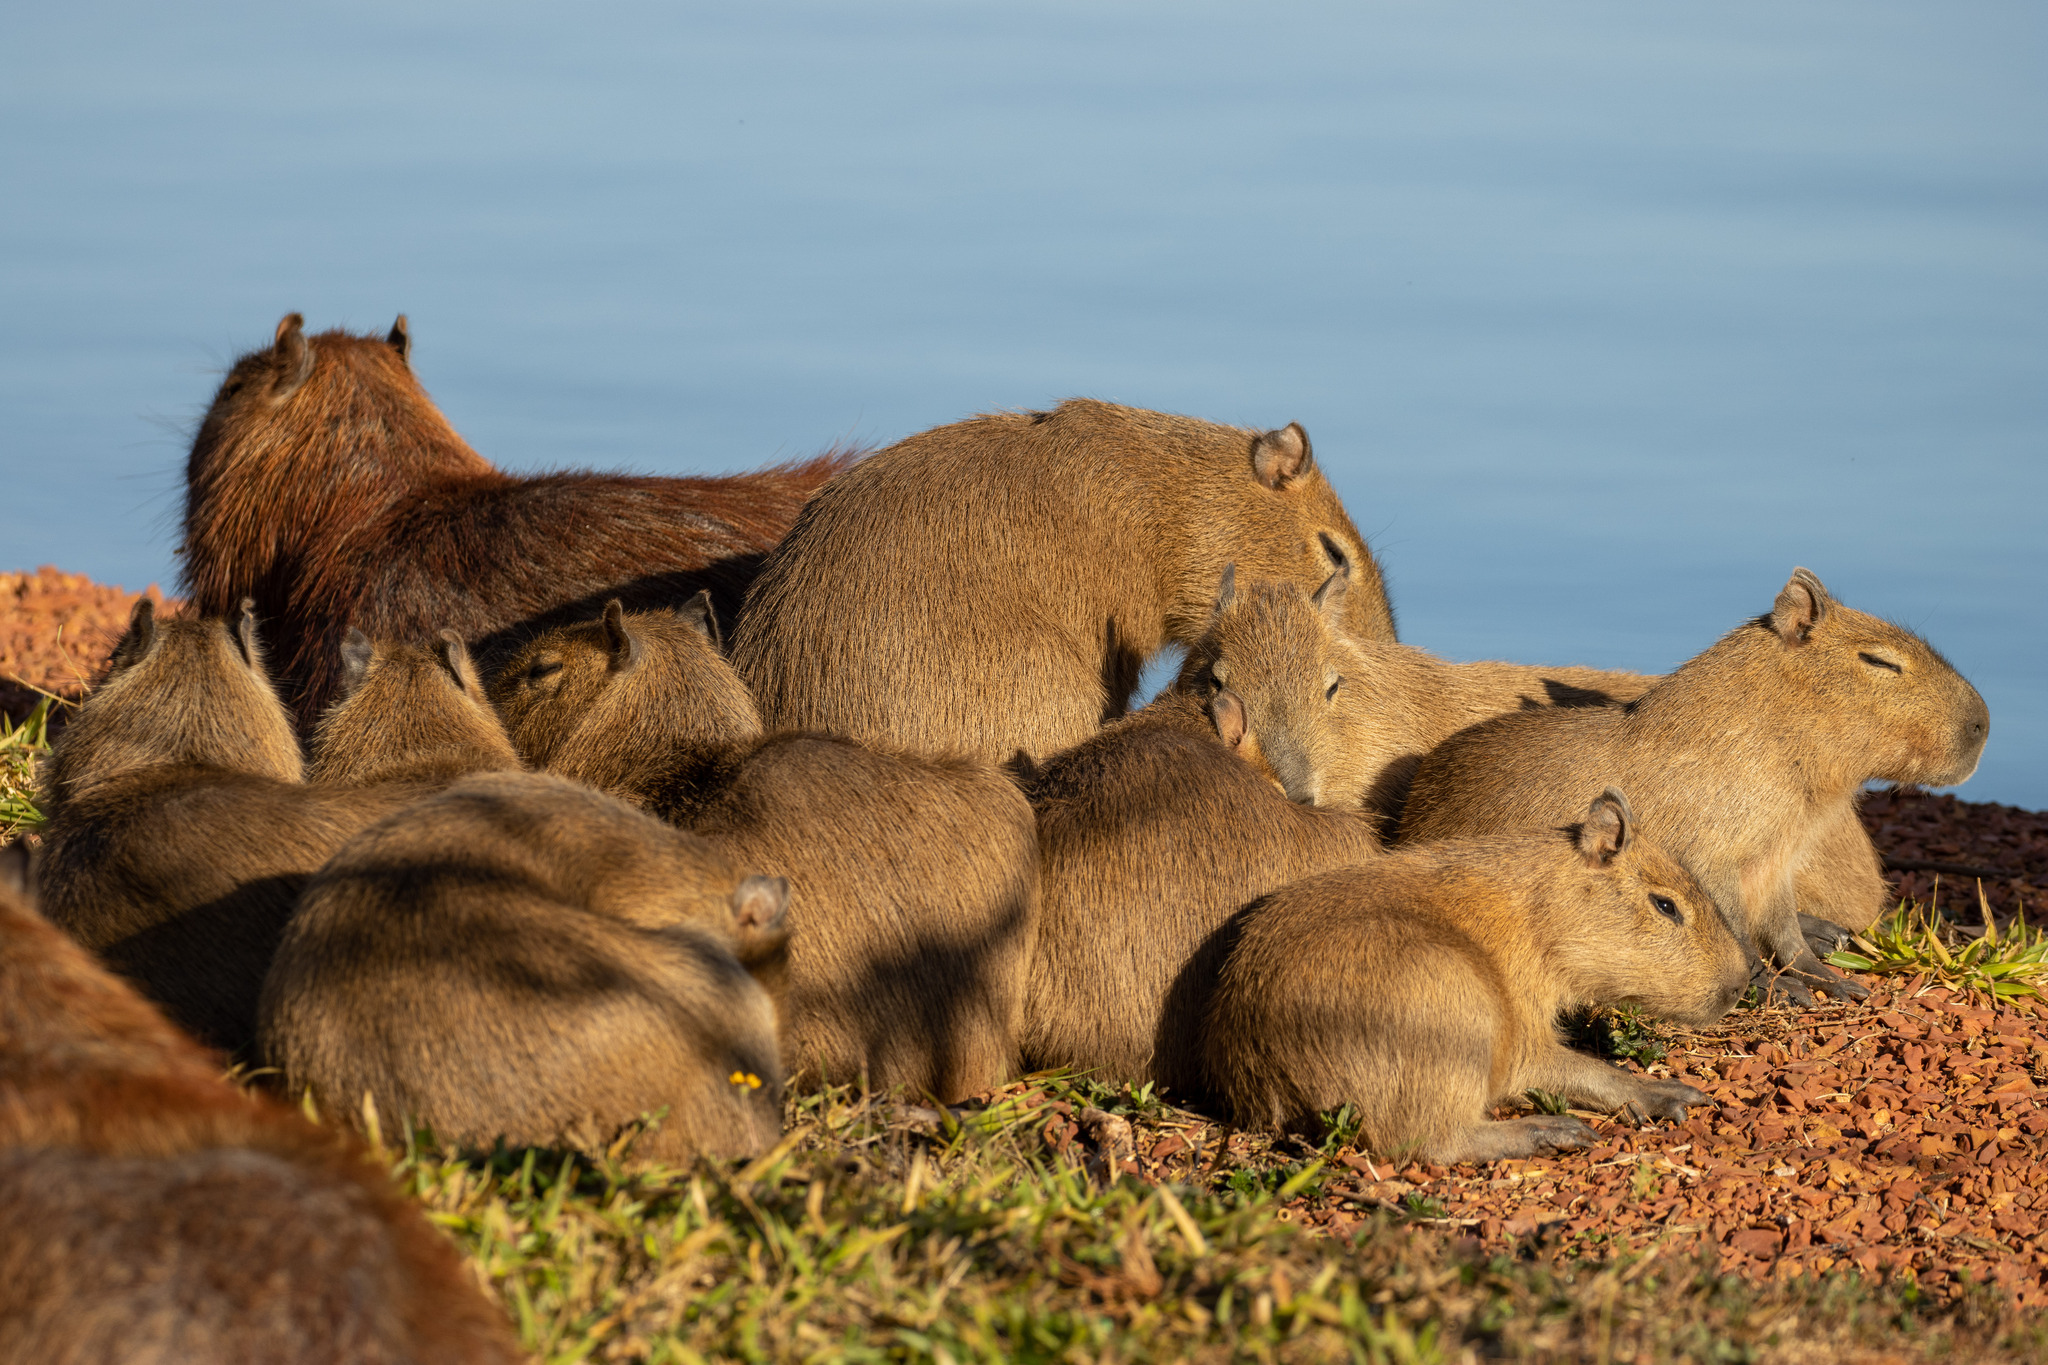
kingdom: Animalia
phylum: Chordata
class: Mammalia
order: Rodentia
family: Caviidae
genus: Hydrochoerus
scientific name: Hydrochoerus hydrochaeris
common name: Capybara
